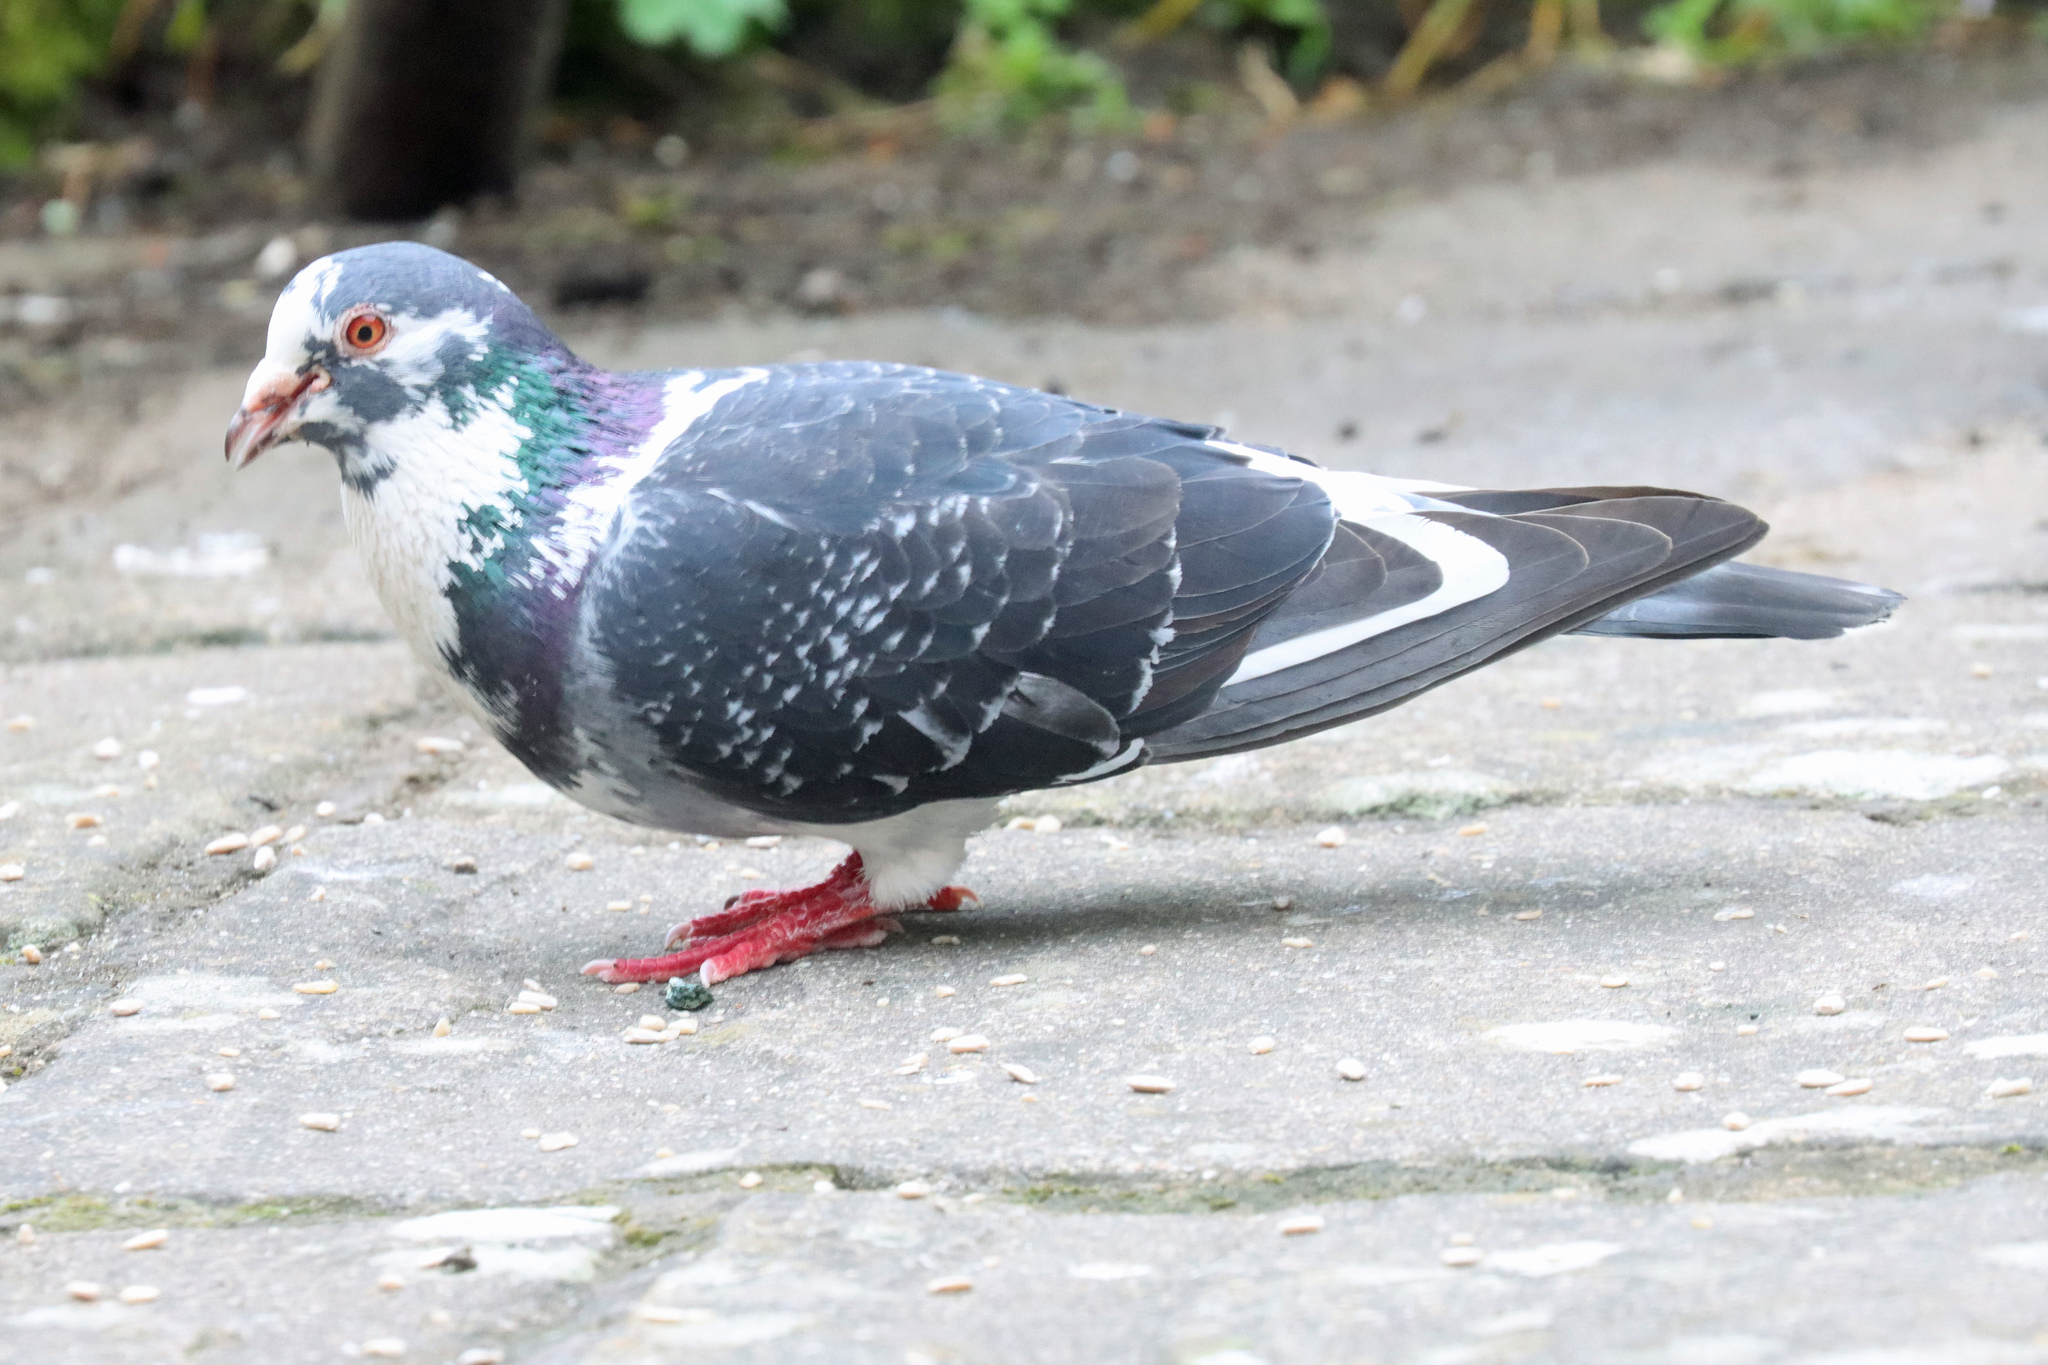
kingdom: Animalia
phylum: Chordata
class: Aves
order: Columbiformes
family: Columbidae
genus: Columba
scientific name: Columba livia
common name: Rock pigeon
